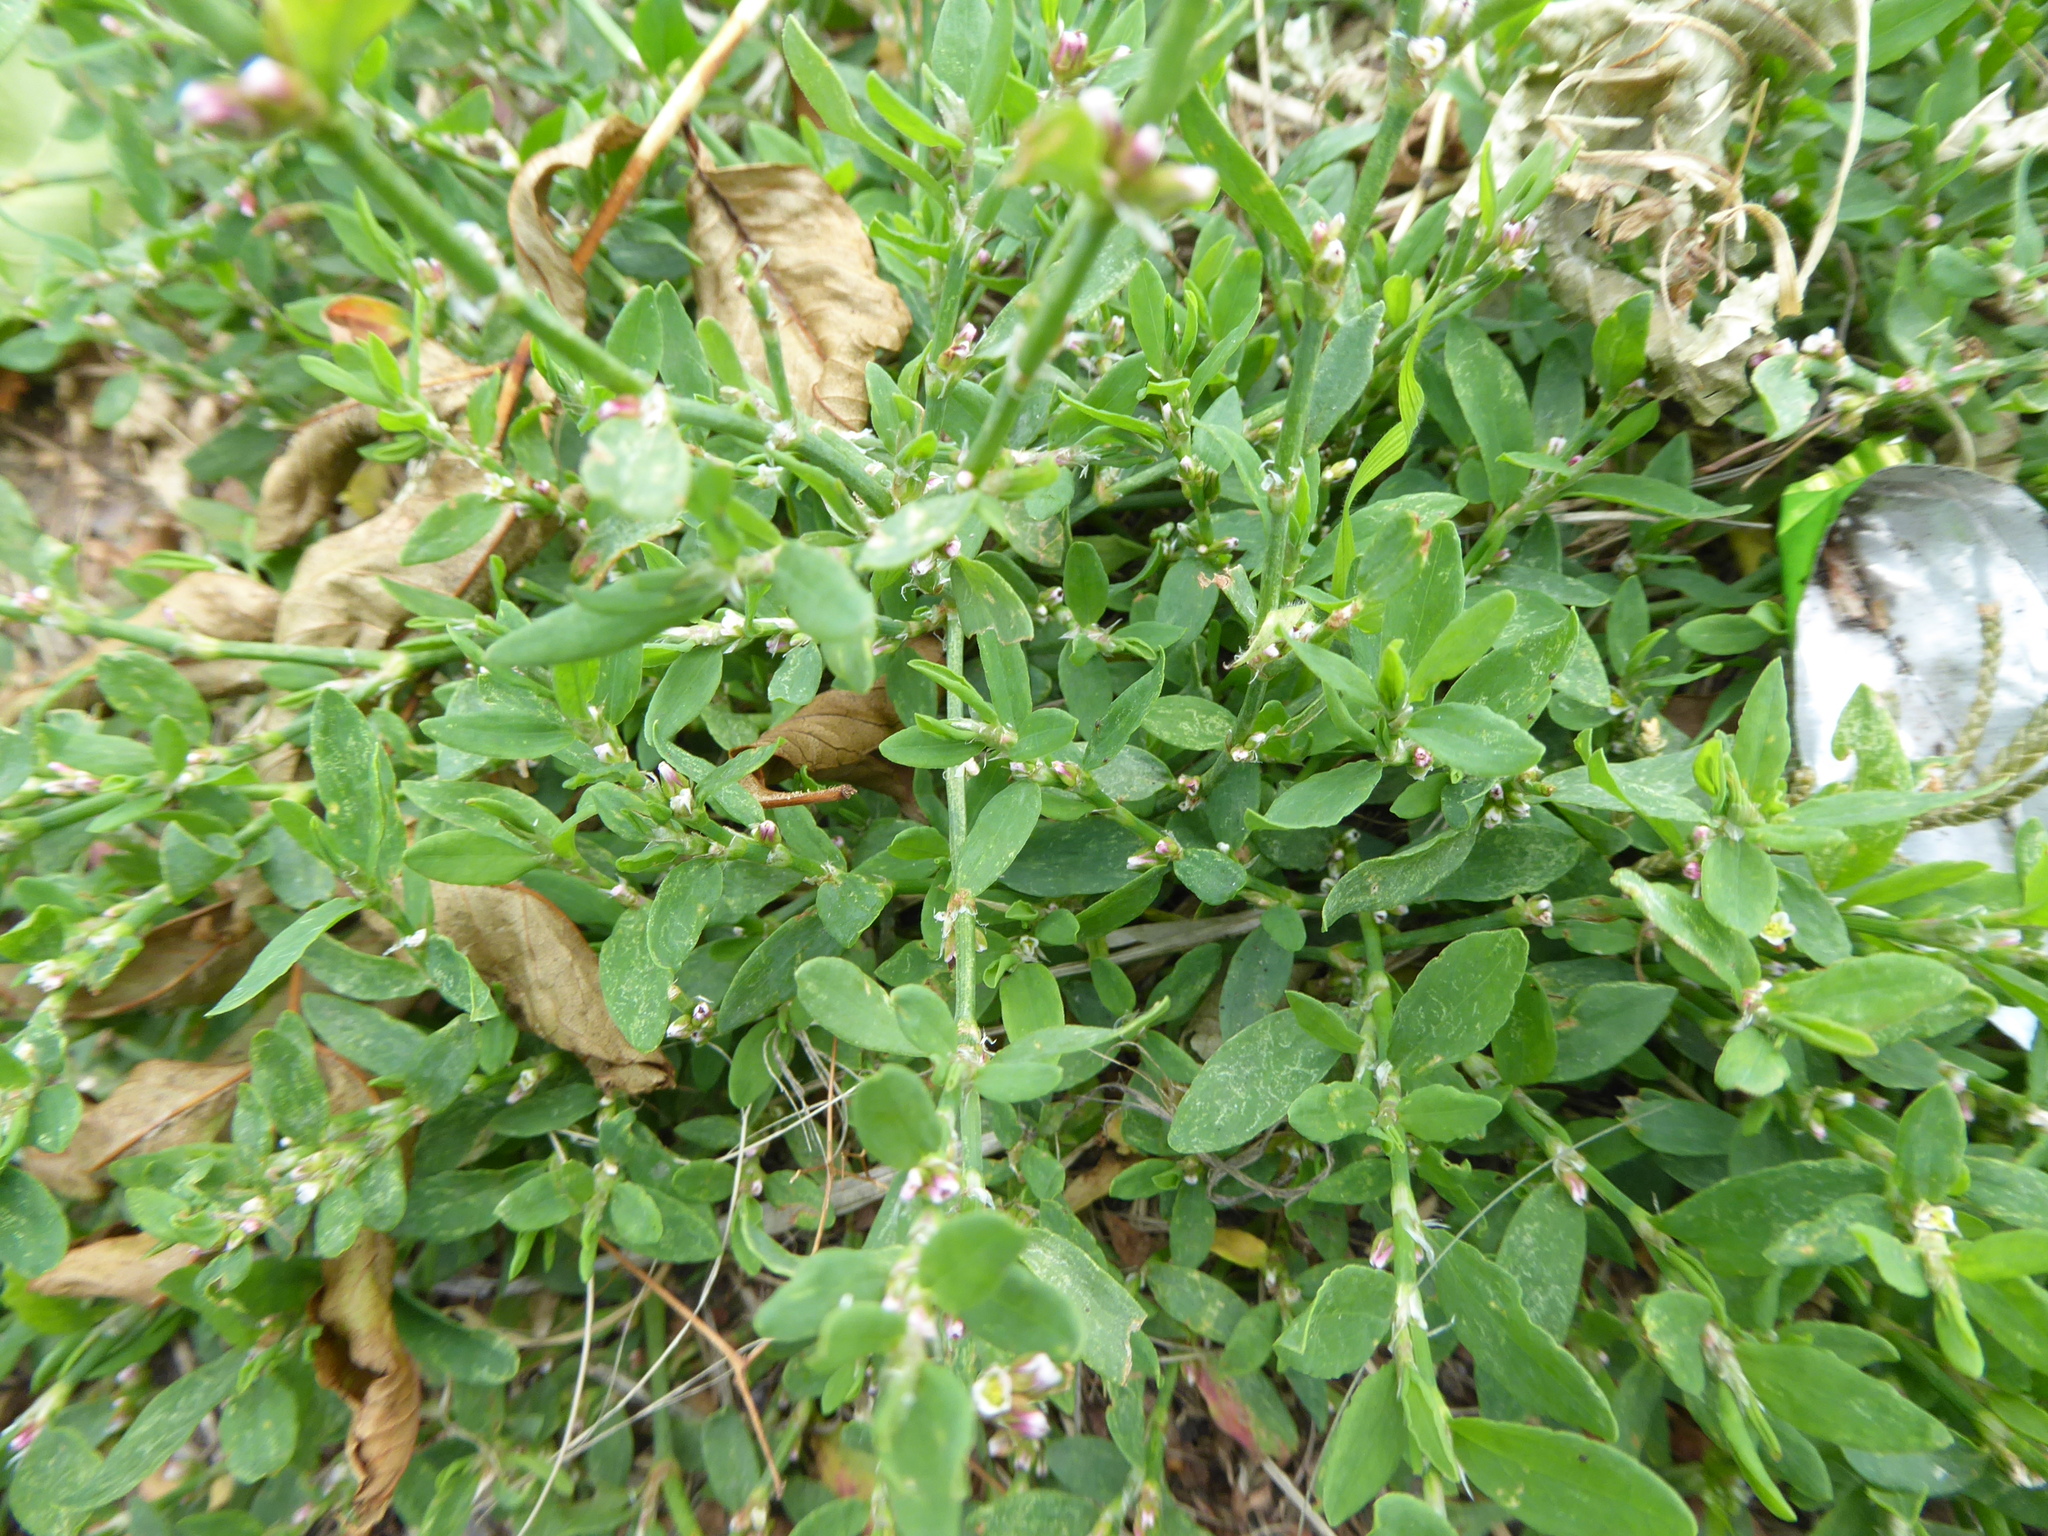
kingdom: Plantae
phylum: Tracheophyta
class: Magnoliopsida
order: Caryophyllales
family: Polygonaceae
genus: Polygonum
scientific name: Polygonum
